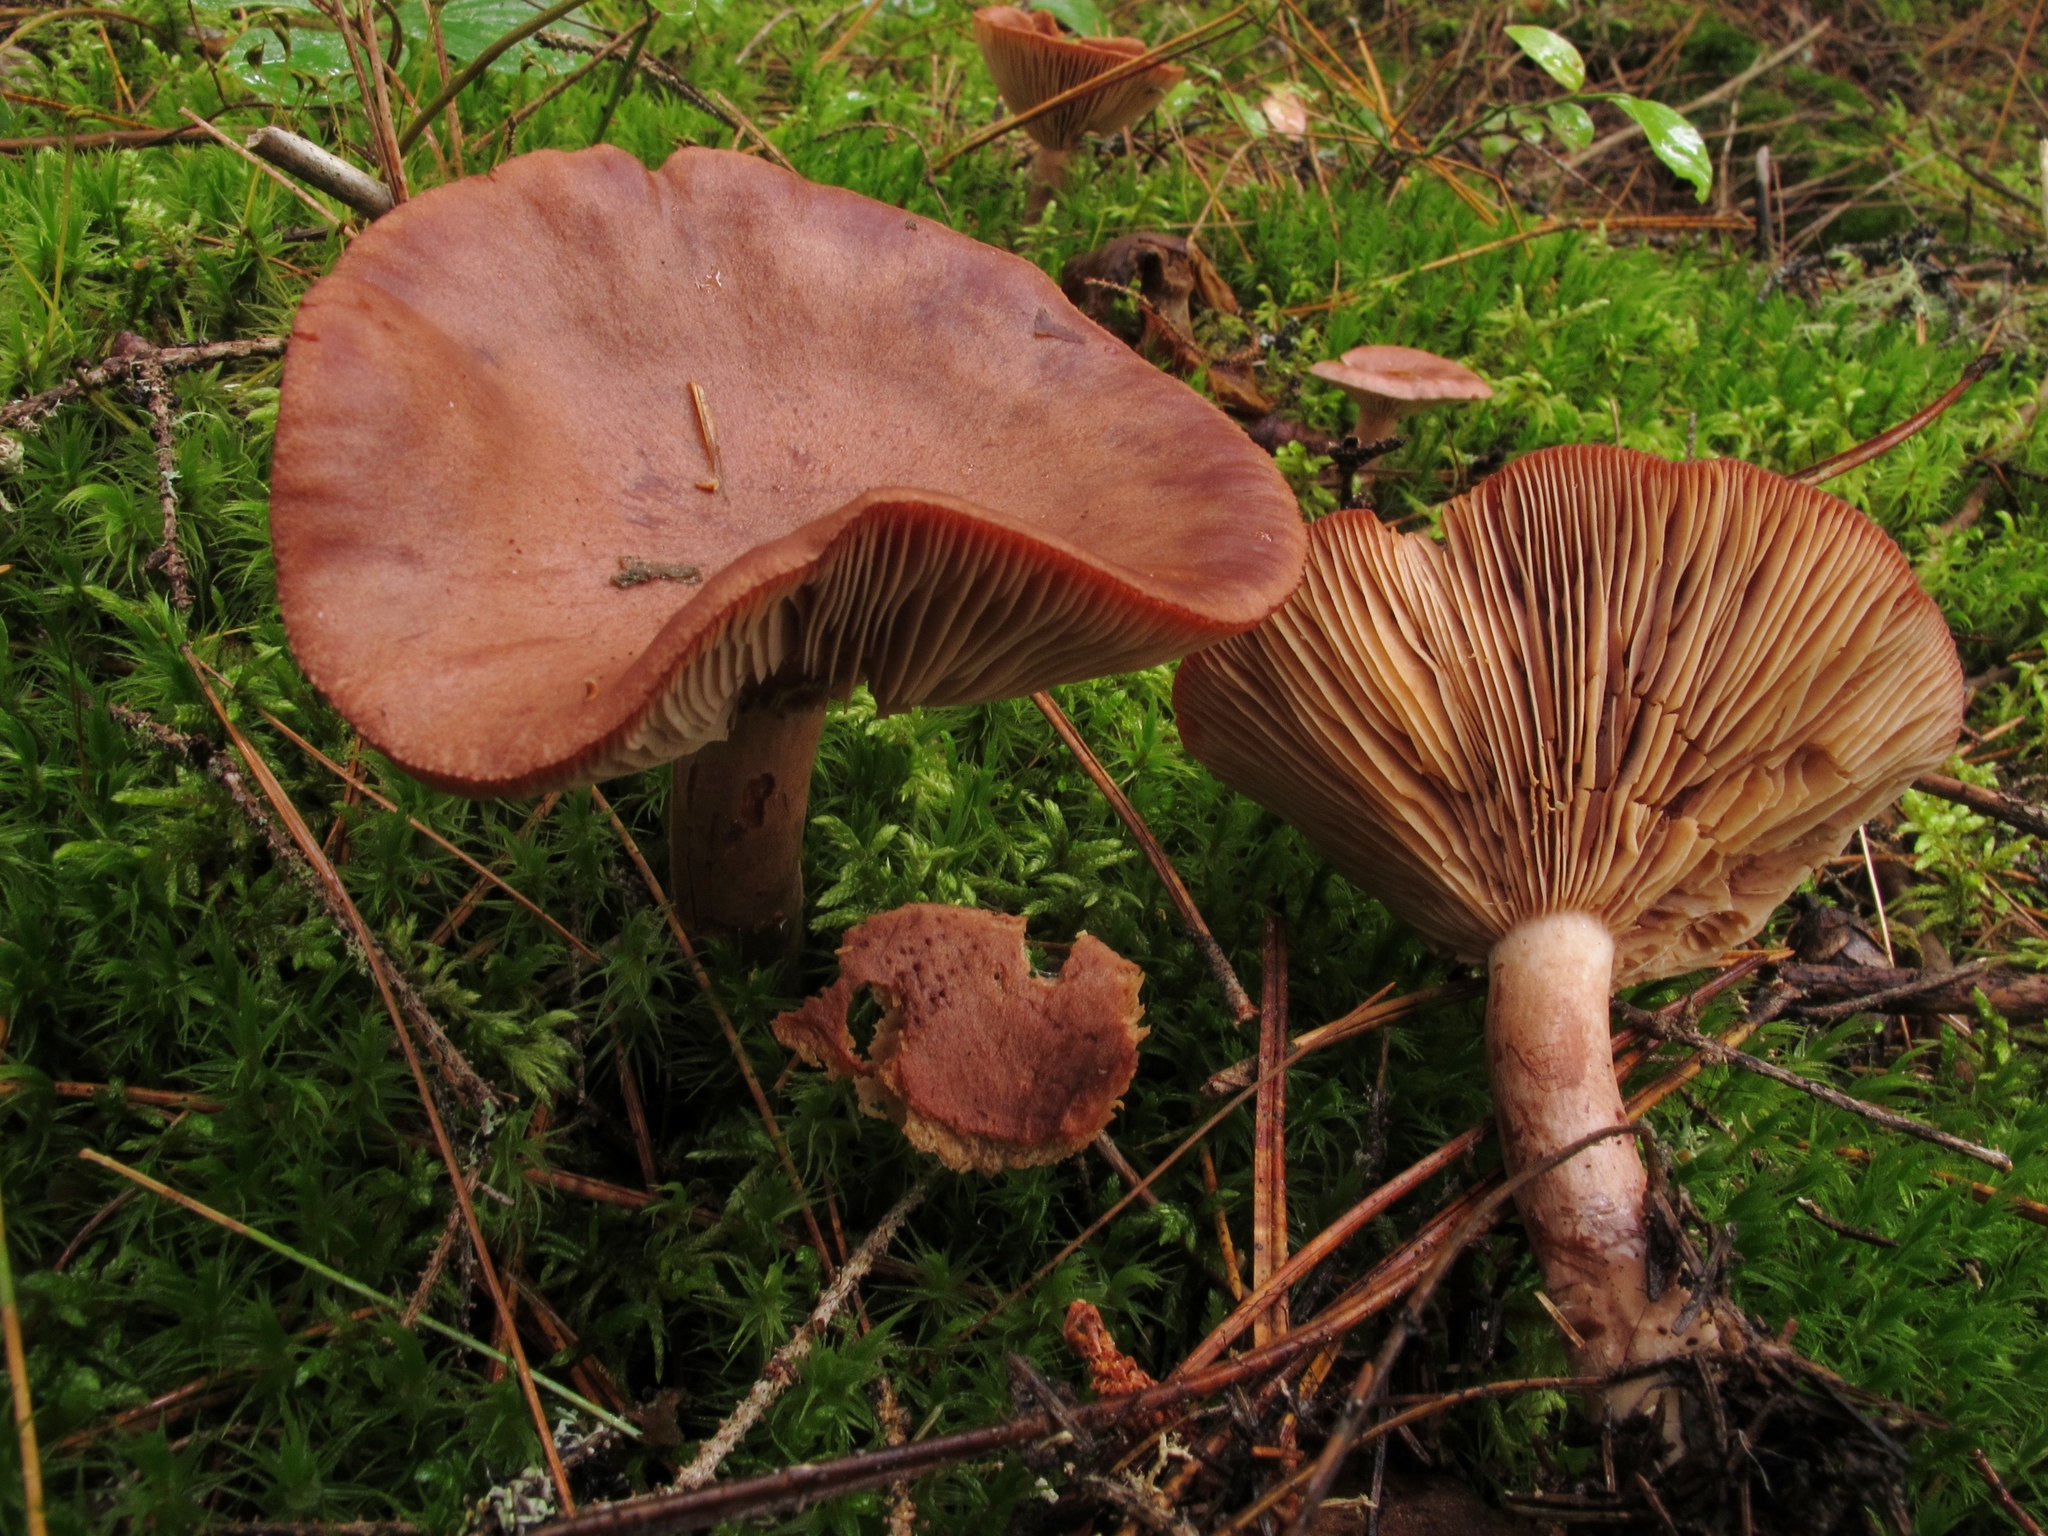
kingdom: Fungi
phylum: Basidiomycota
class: Agaricomycetes
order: Russulales
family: Russulaceae
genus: Lactarius
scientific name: Lactarius rufus
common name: Rufous milk-cap
